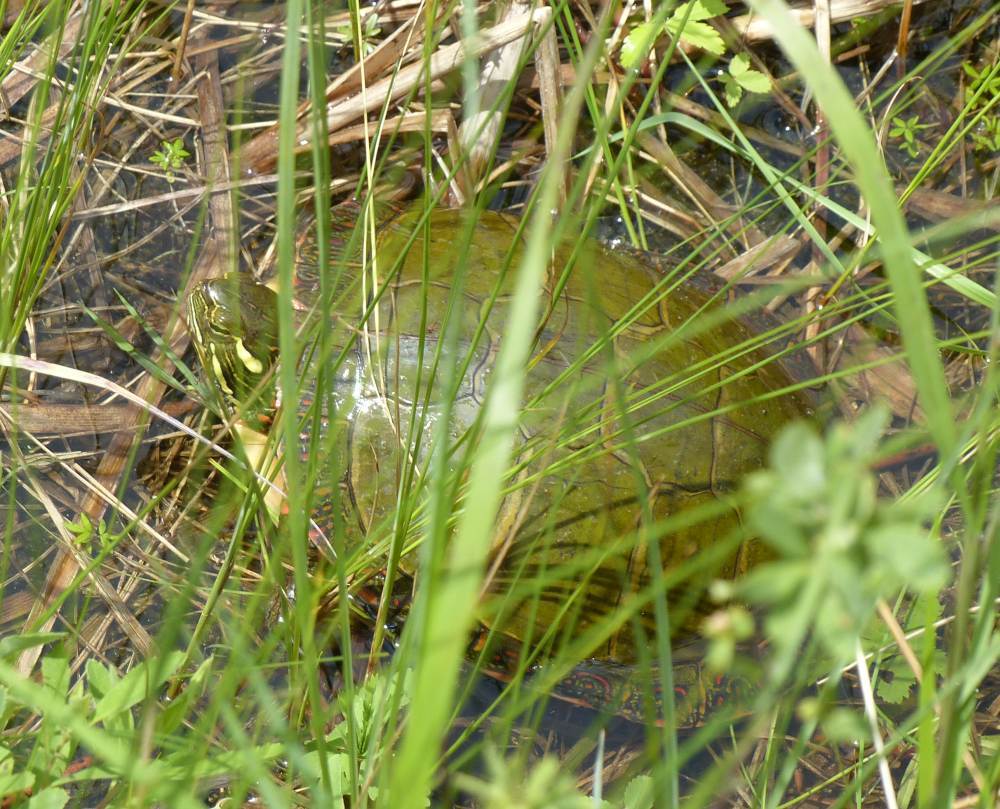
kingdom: Animalia
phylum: Chordata
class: Testudines
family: Emydidae
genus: Chrysemys
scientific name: Chrysemys picta
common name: Painted turtle
